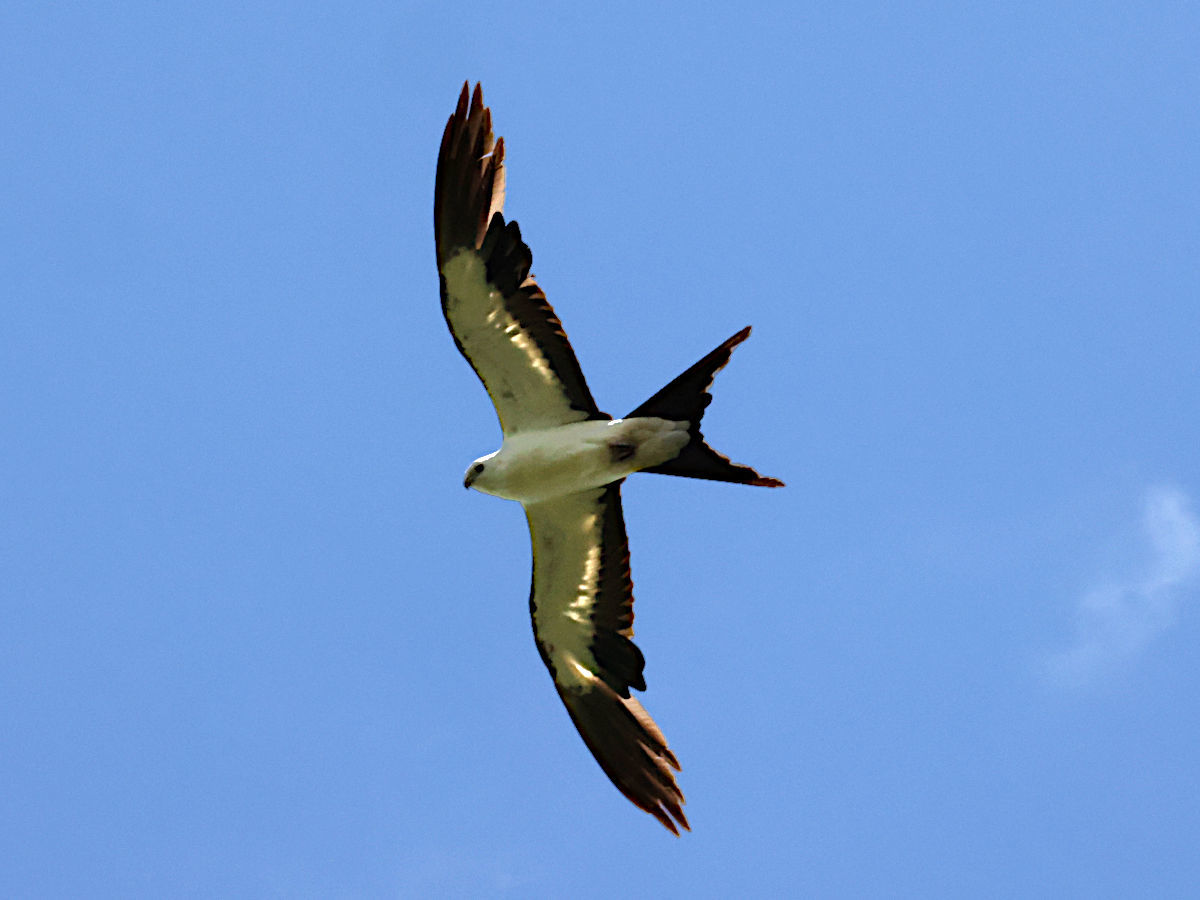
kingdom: Animalia
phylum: Chordata
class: Aves
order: Accipitriformes
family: Accipitridae
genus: Elanoides
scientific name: Elanoides forficatus
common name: Swallow-tailed kite
